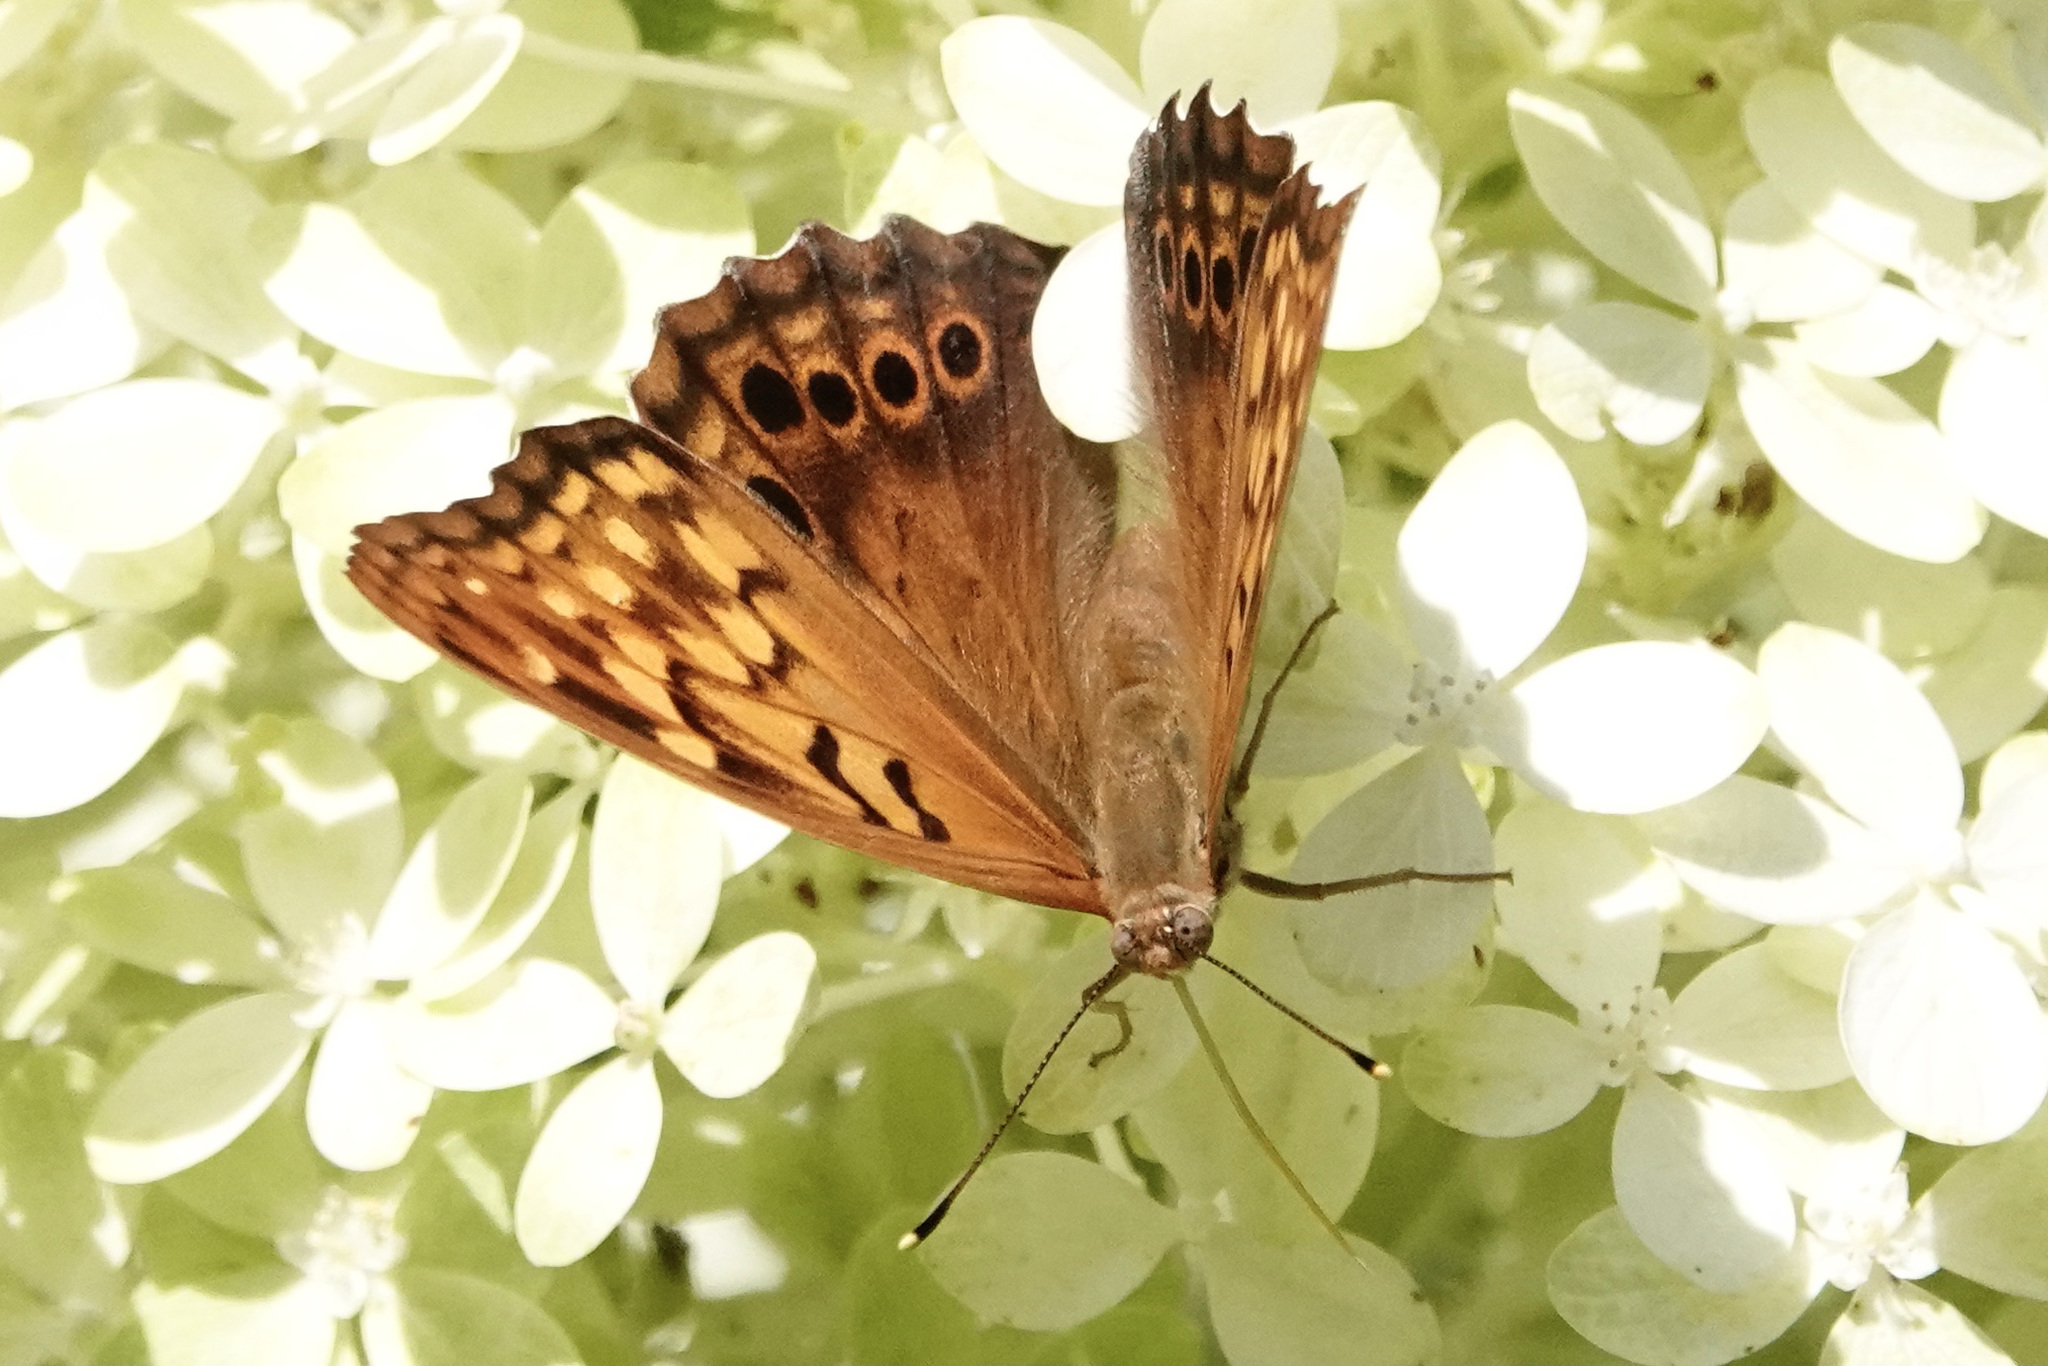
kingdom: Animalia
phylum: Arthropoda
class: Insecta
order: Lepidoptera
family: Nymphalidae
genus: Asterocampa
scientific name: Asterocampa clyton
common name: Tawny emperor
